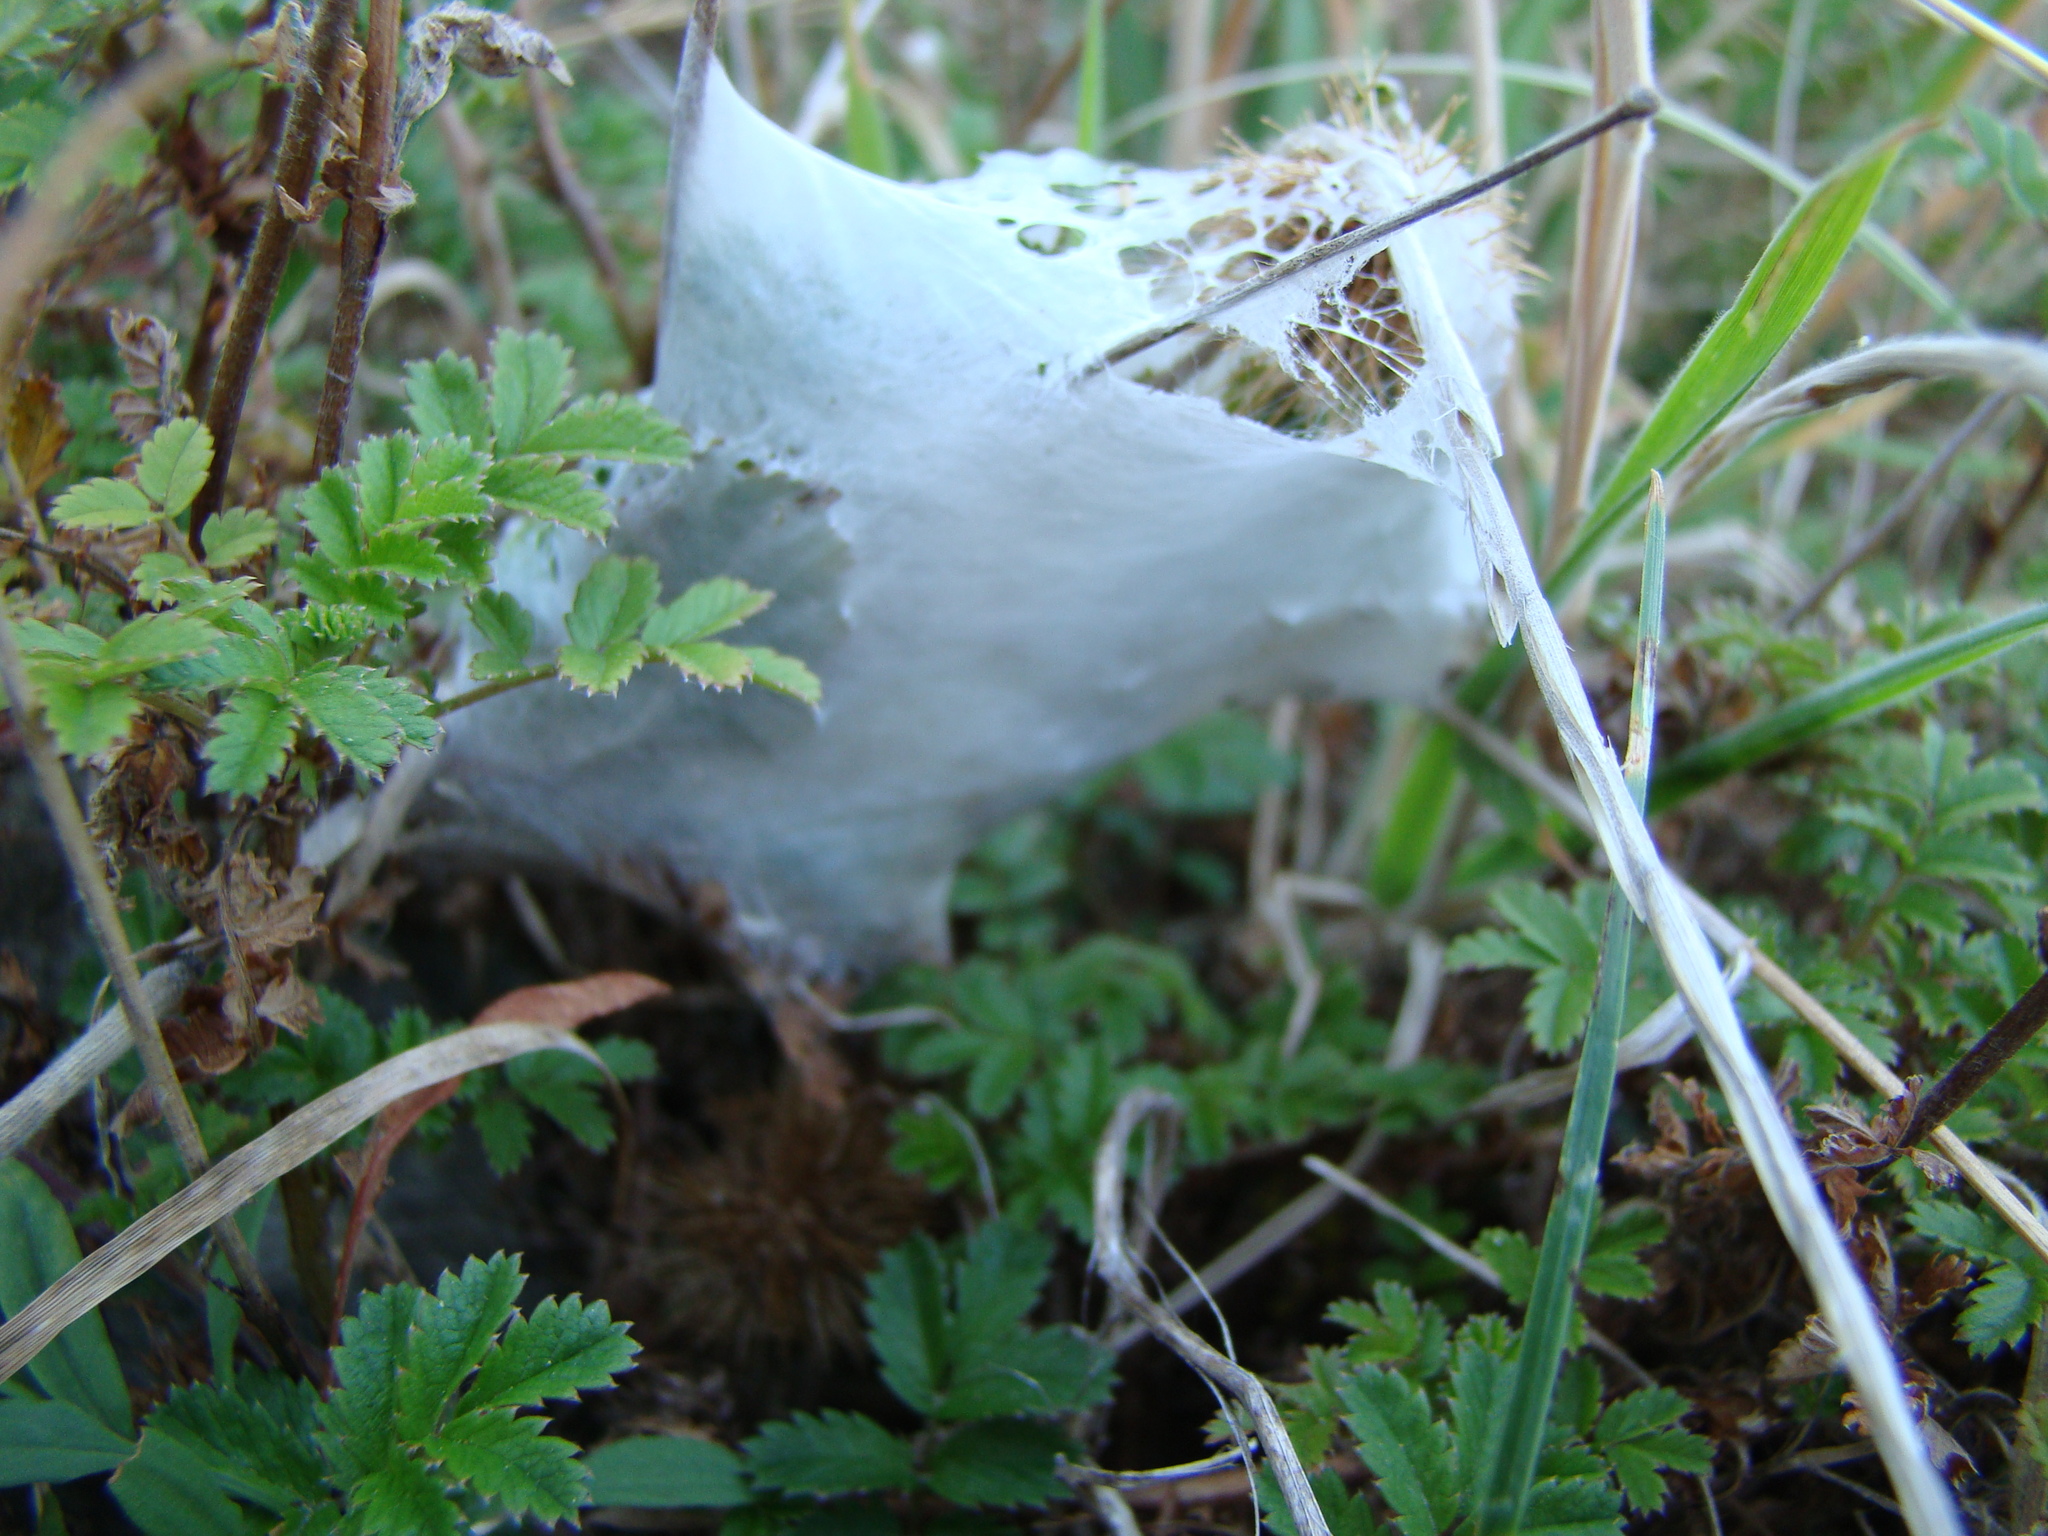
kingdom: Animalia
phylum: Arthropoda
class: Arachnida
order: Araneae
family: Pisauridae
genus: Dolomedes
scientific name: Dolomedes minor
